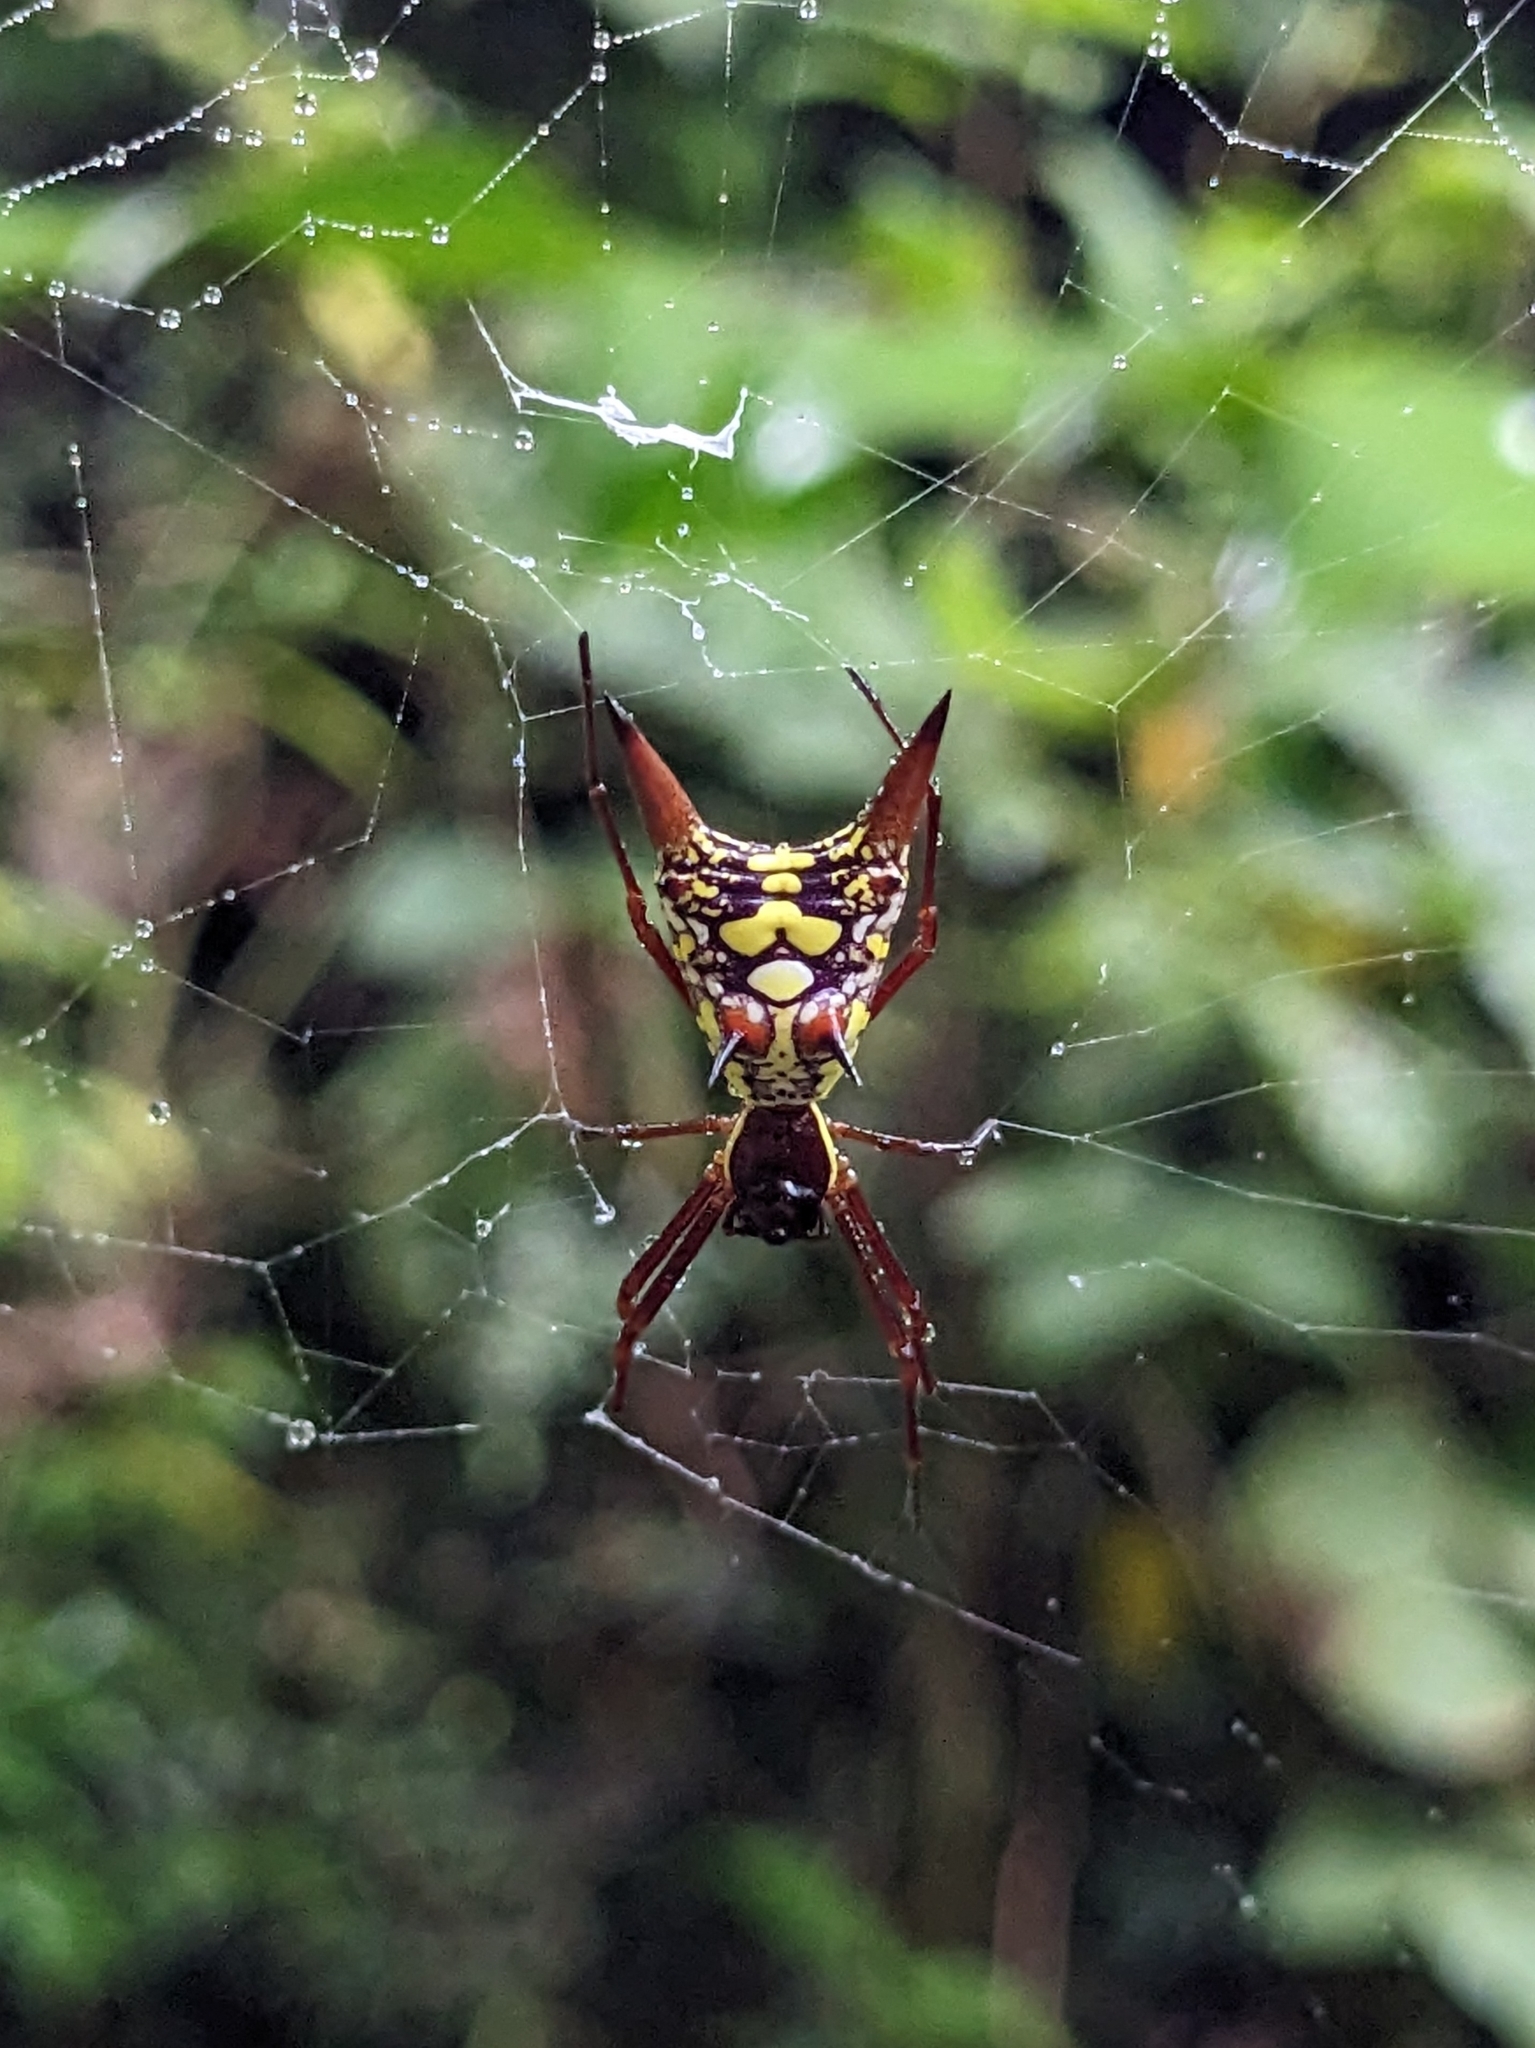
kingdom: Animalia
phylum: Arthropoda
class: Arachnida
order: Araneae
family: Araneidae
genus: Micrathena
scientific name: Micrathena sexspinosa
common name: Orb weavers
